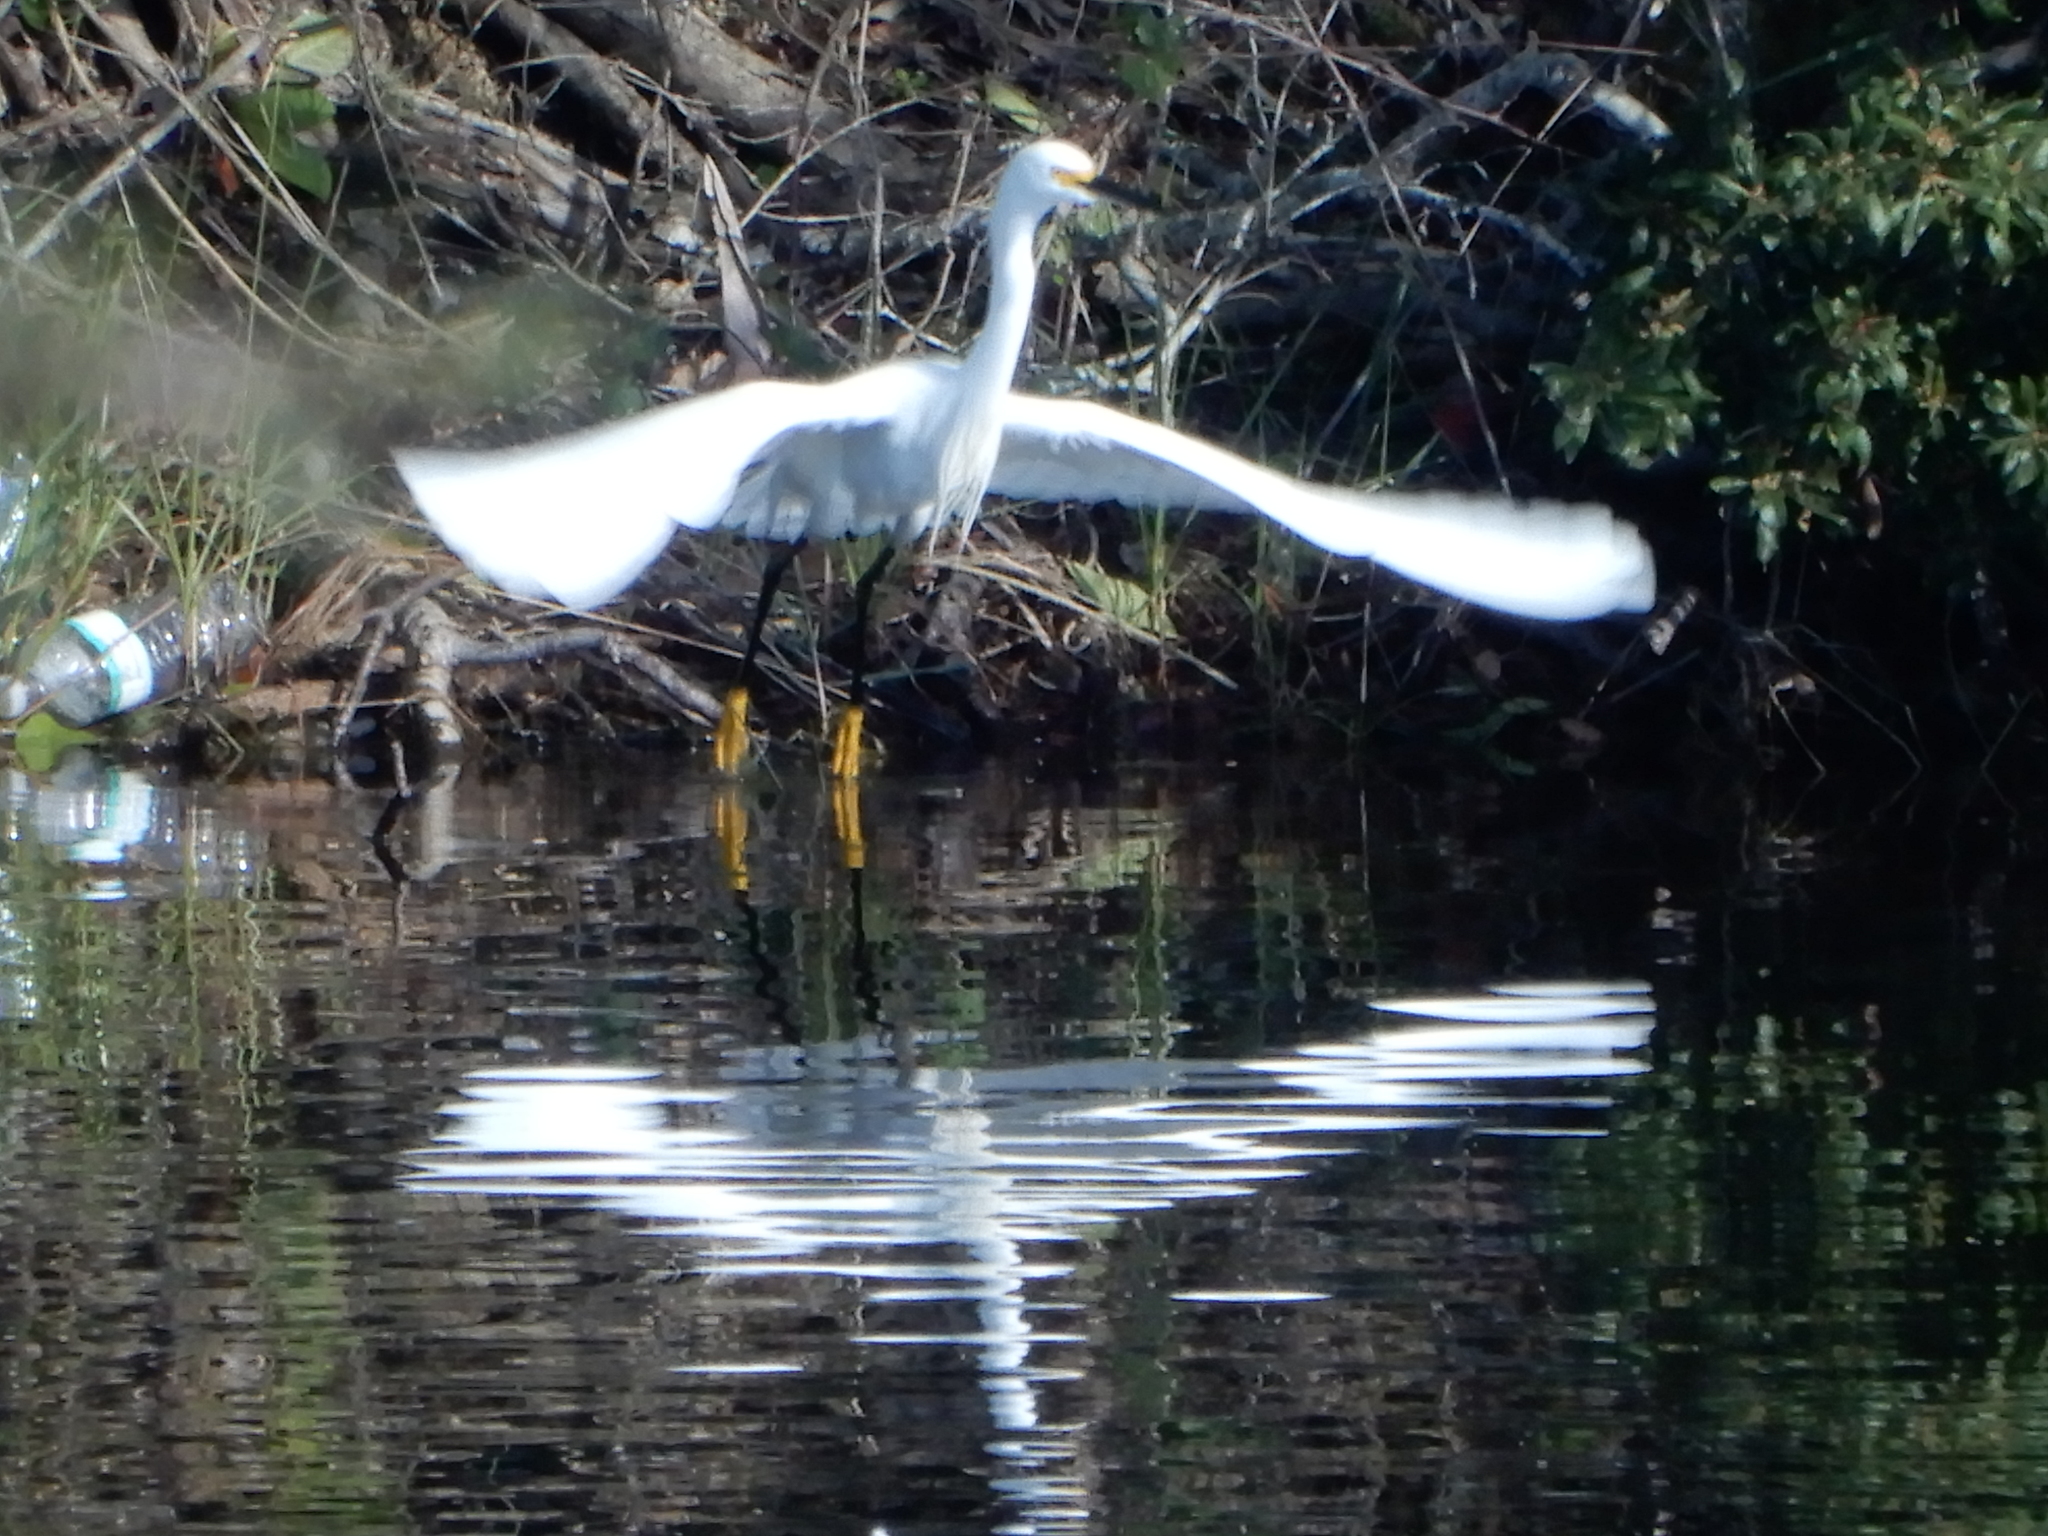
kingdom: Animalia
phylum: Chordata
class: Aves
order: Pelecaniformes
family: Ardeidae
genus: Egretta
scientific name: Egretta thula
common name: Snowy egret
